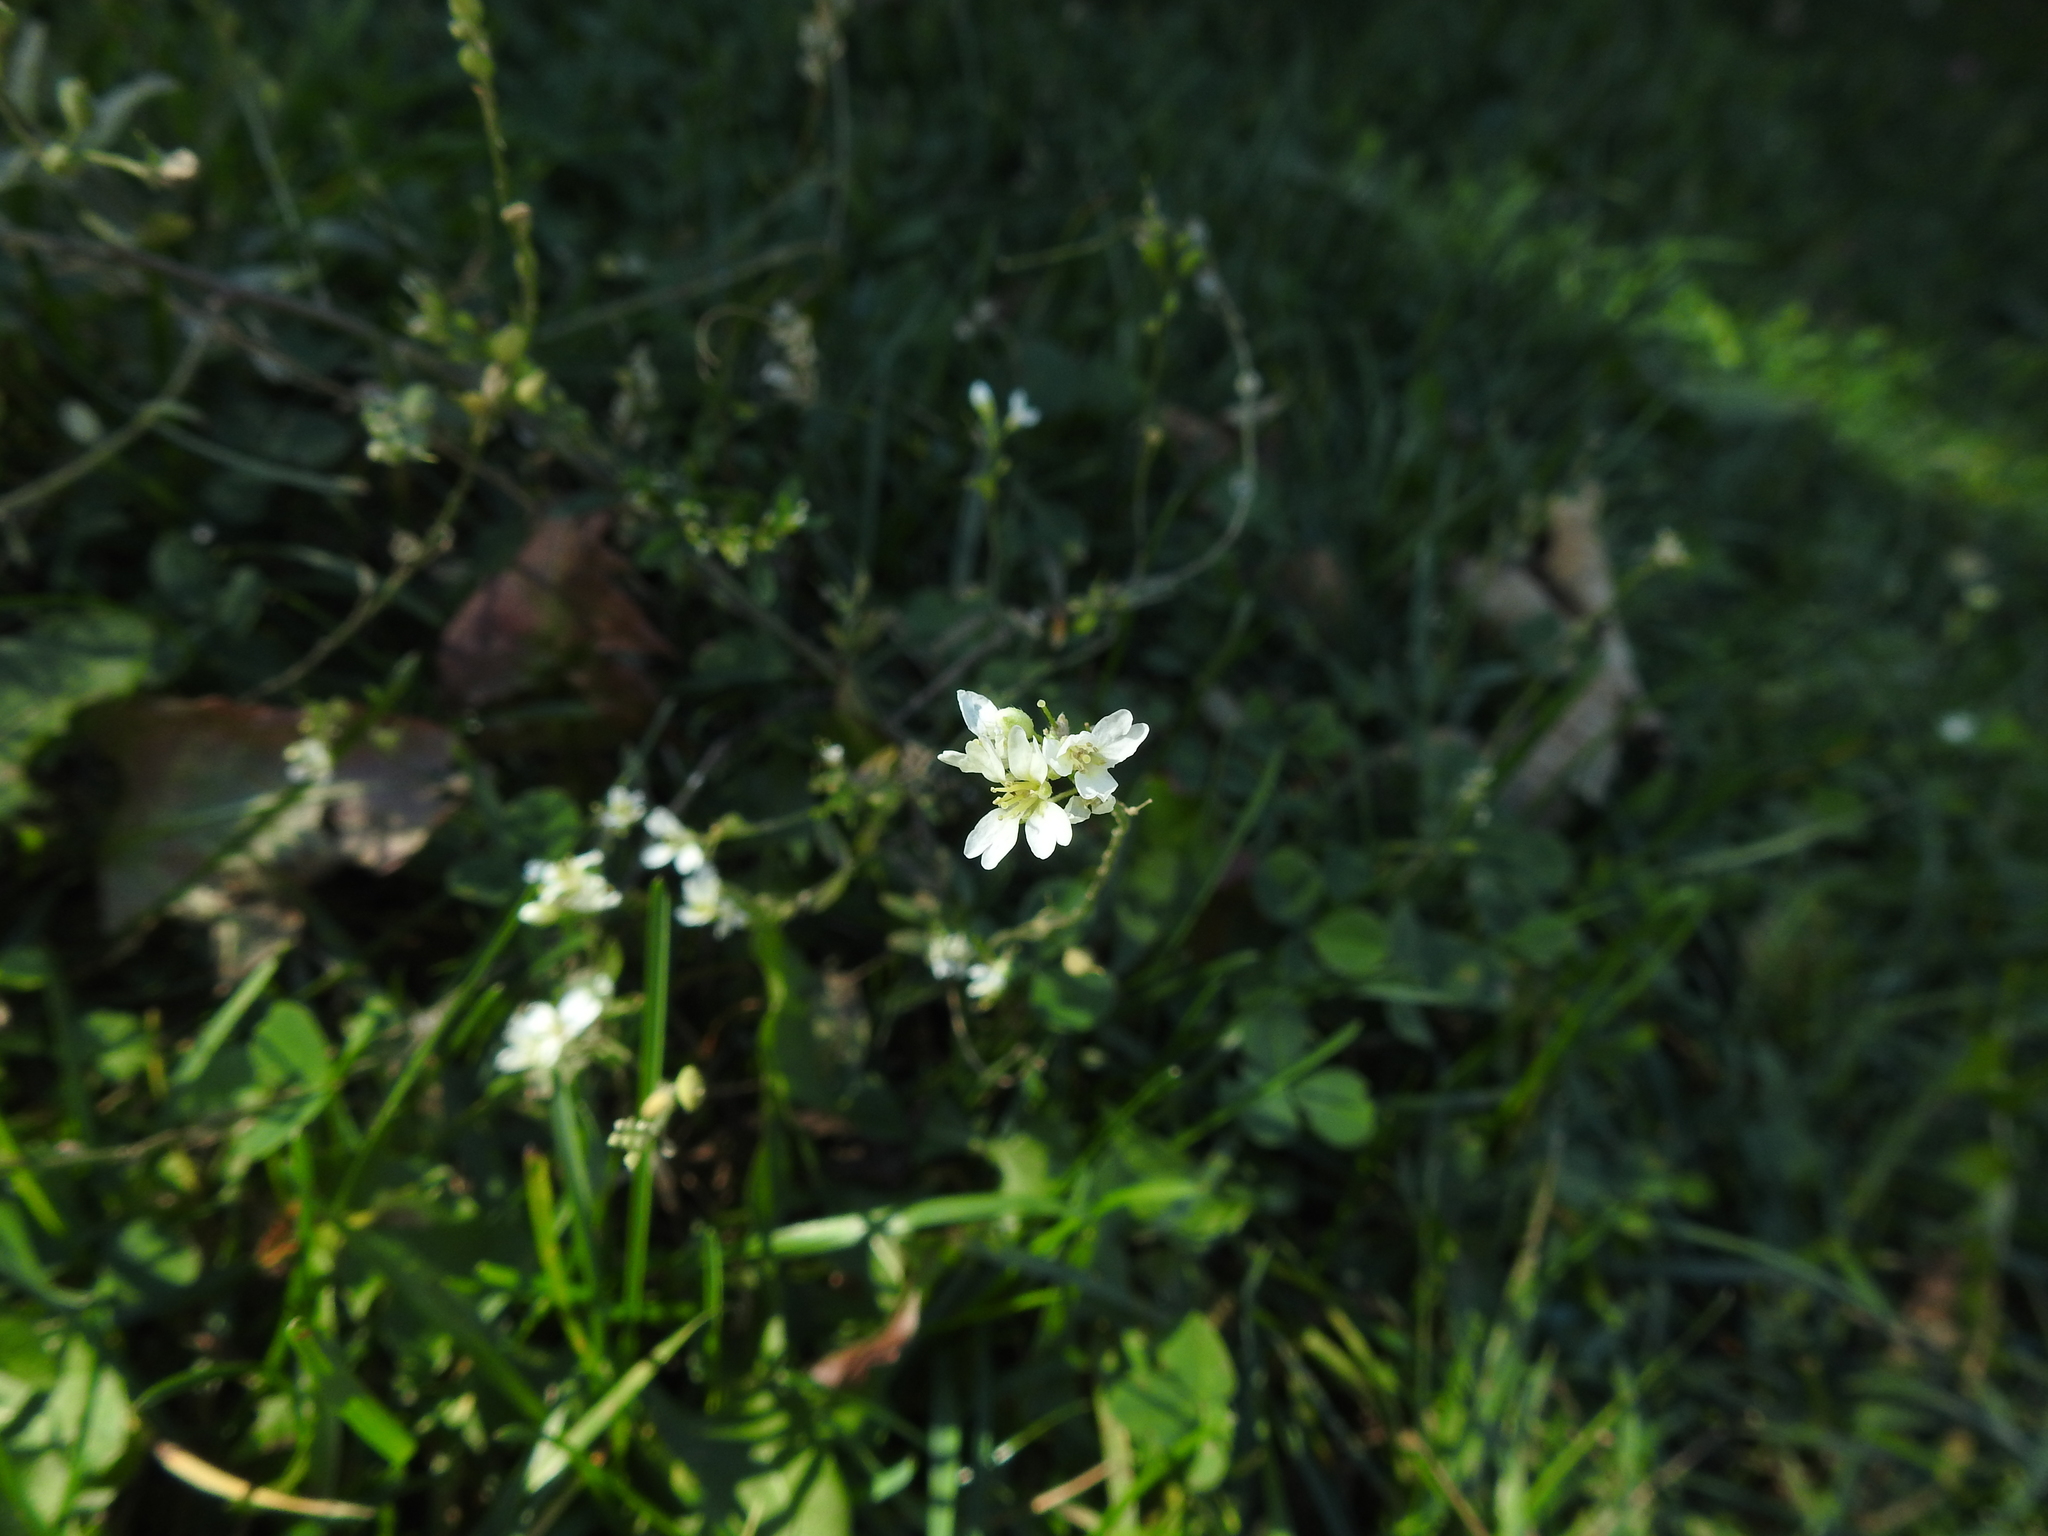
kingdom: Plantae
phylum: Tracheophyta
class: Magnoliopsida
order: Brassicales
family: Brassicaceae
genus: Berteroa
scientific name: Berteroa incana
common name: Hoary alison
